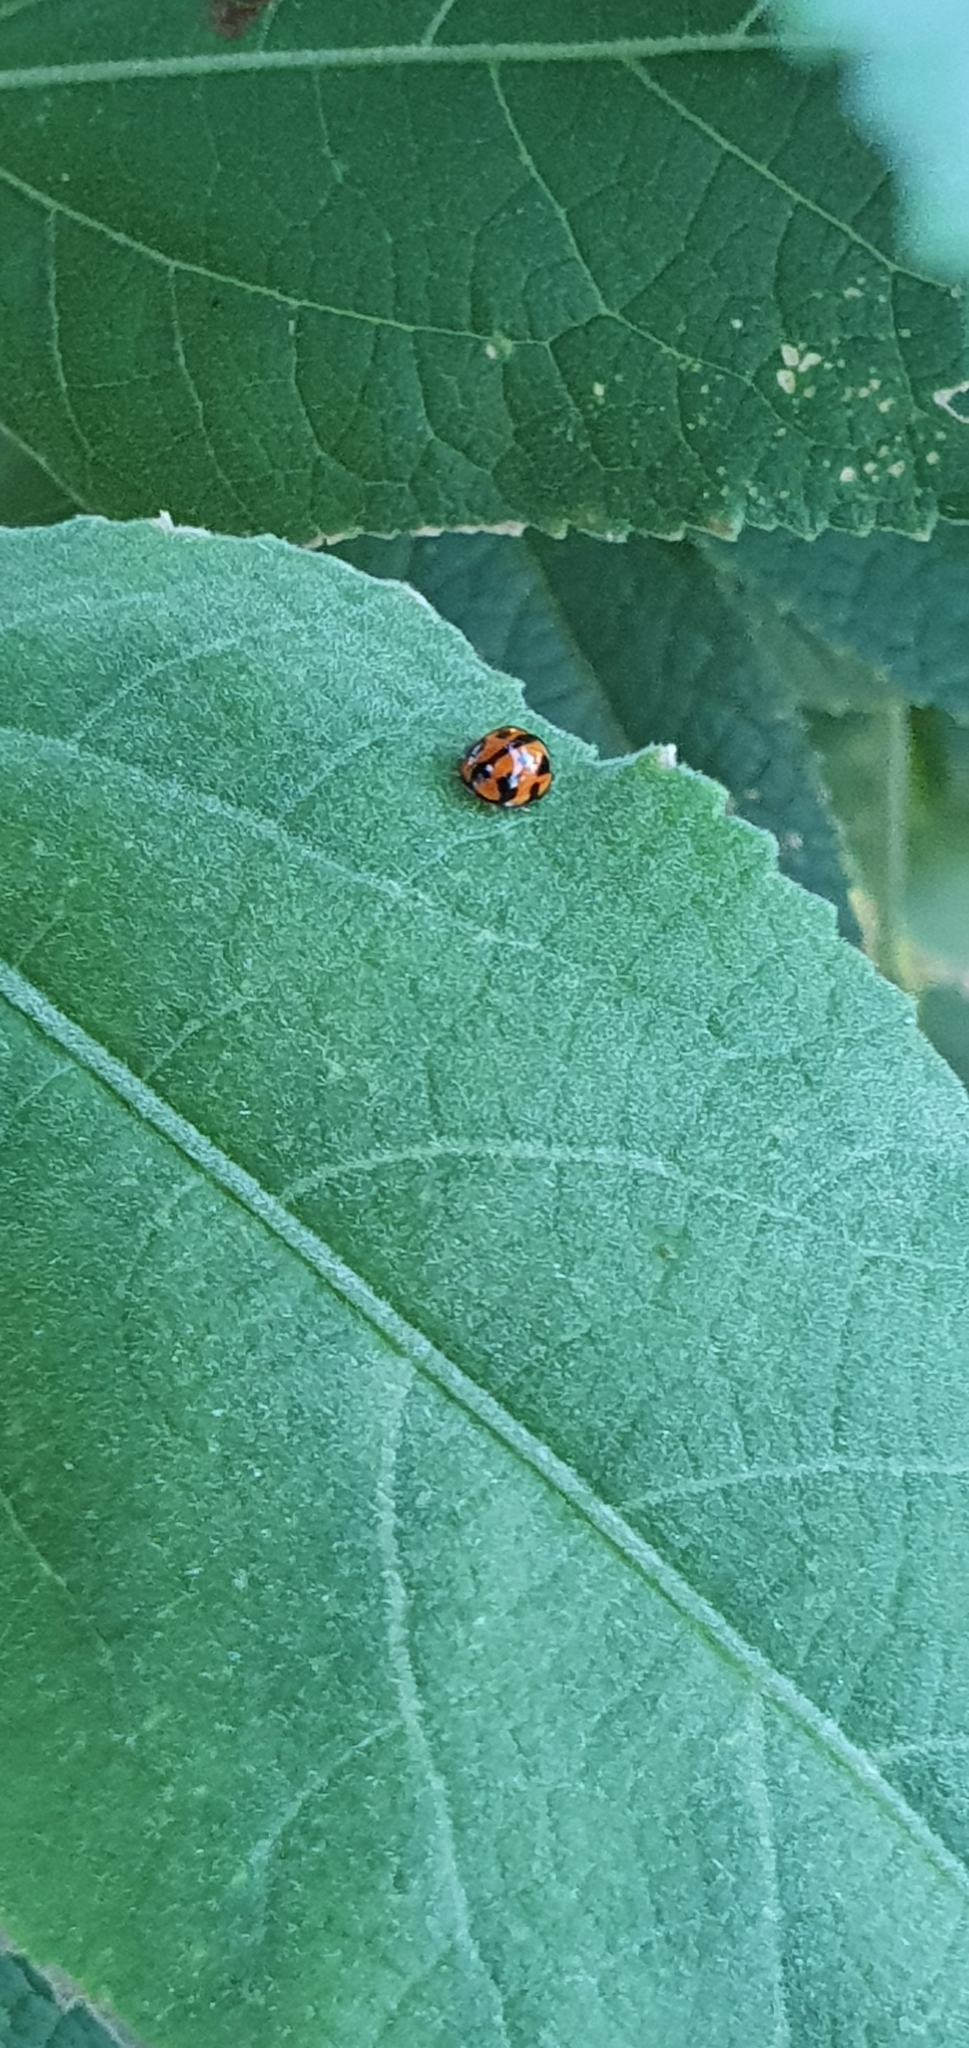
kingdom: Animalia
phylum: Arthropoda
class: Insecta
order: Coleoptera
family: Coccinellidae
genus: Coelophora
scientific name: Coelophora inaequalis
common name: Common australian lady beetle
